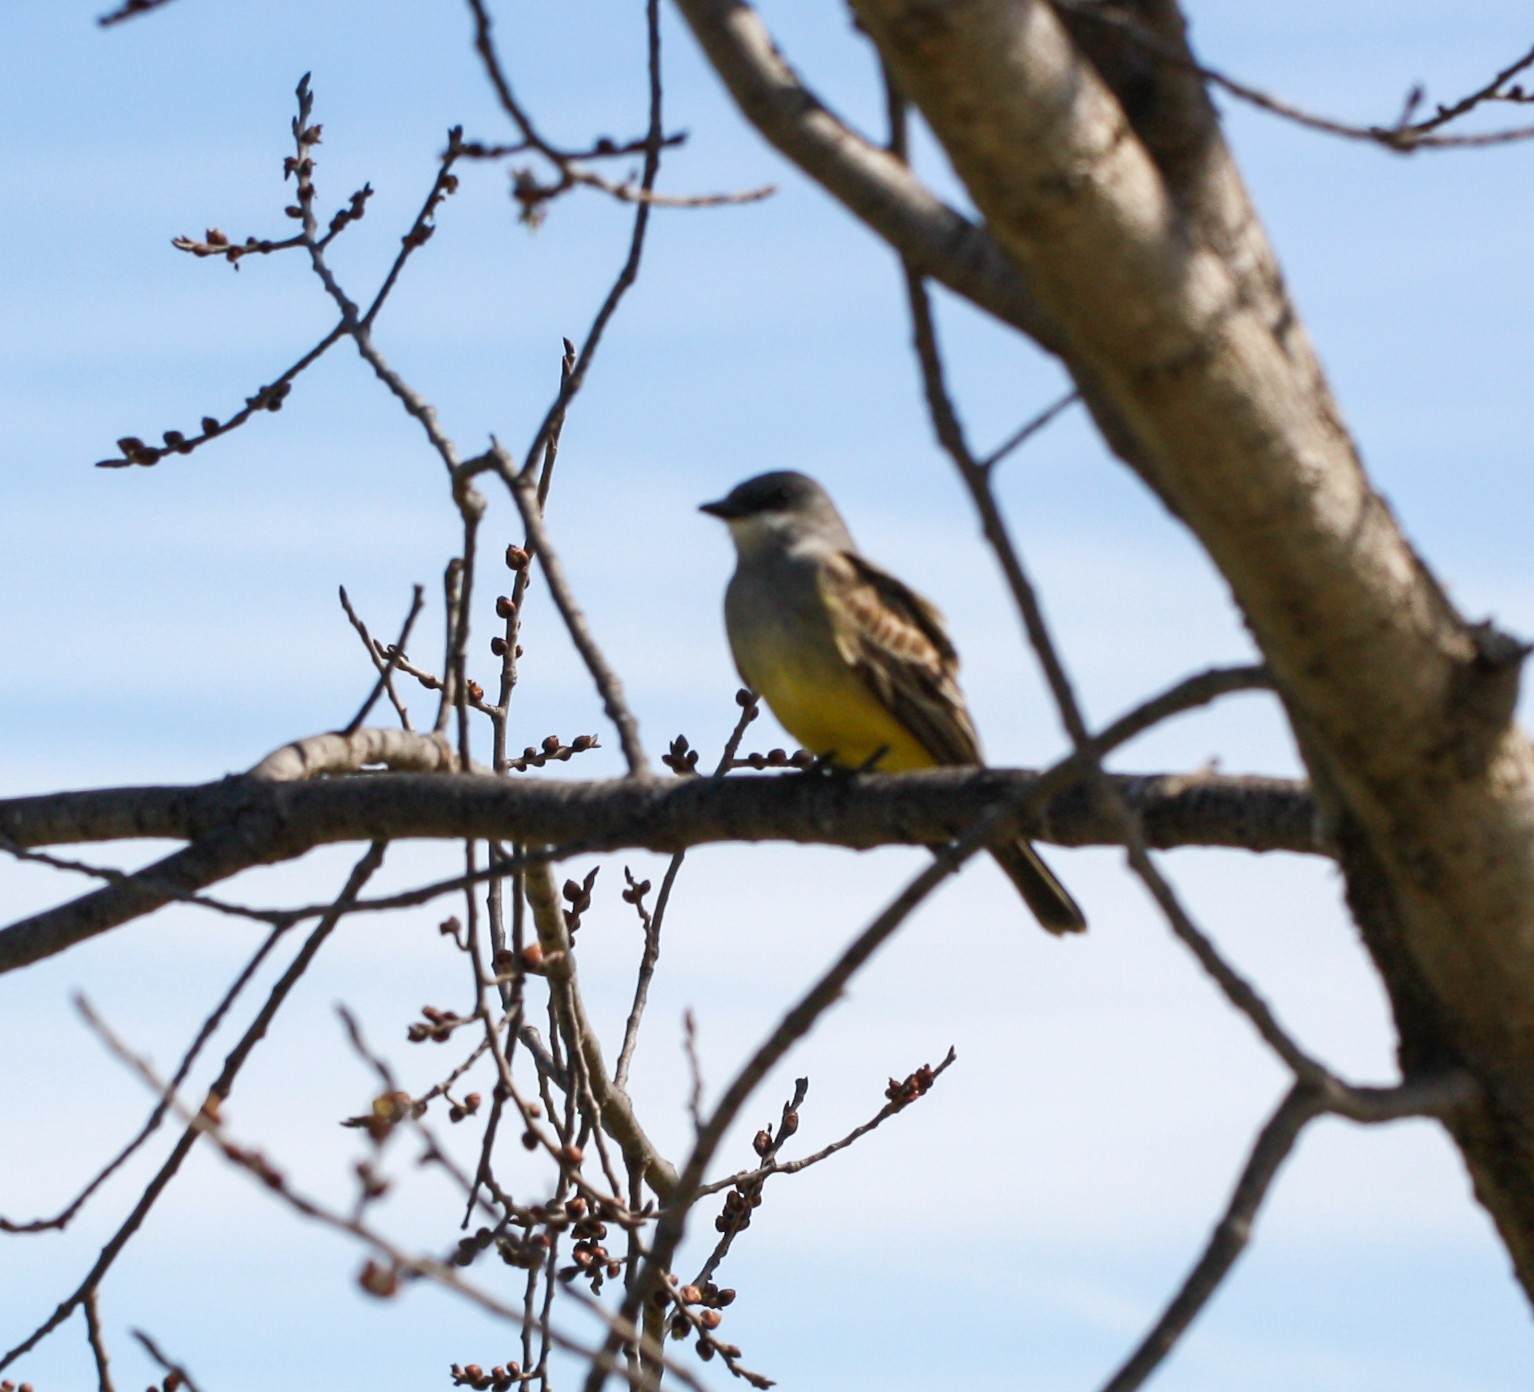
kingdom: Animalia
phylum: Chordata
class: Aves
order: Passeriformes
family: Tyrannidae
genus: Tyrannus
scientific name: Tyrannus vociferans
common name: Cassin's kingbird
